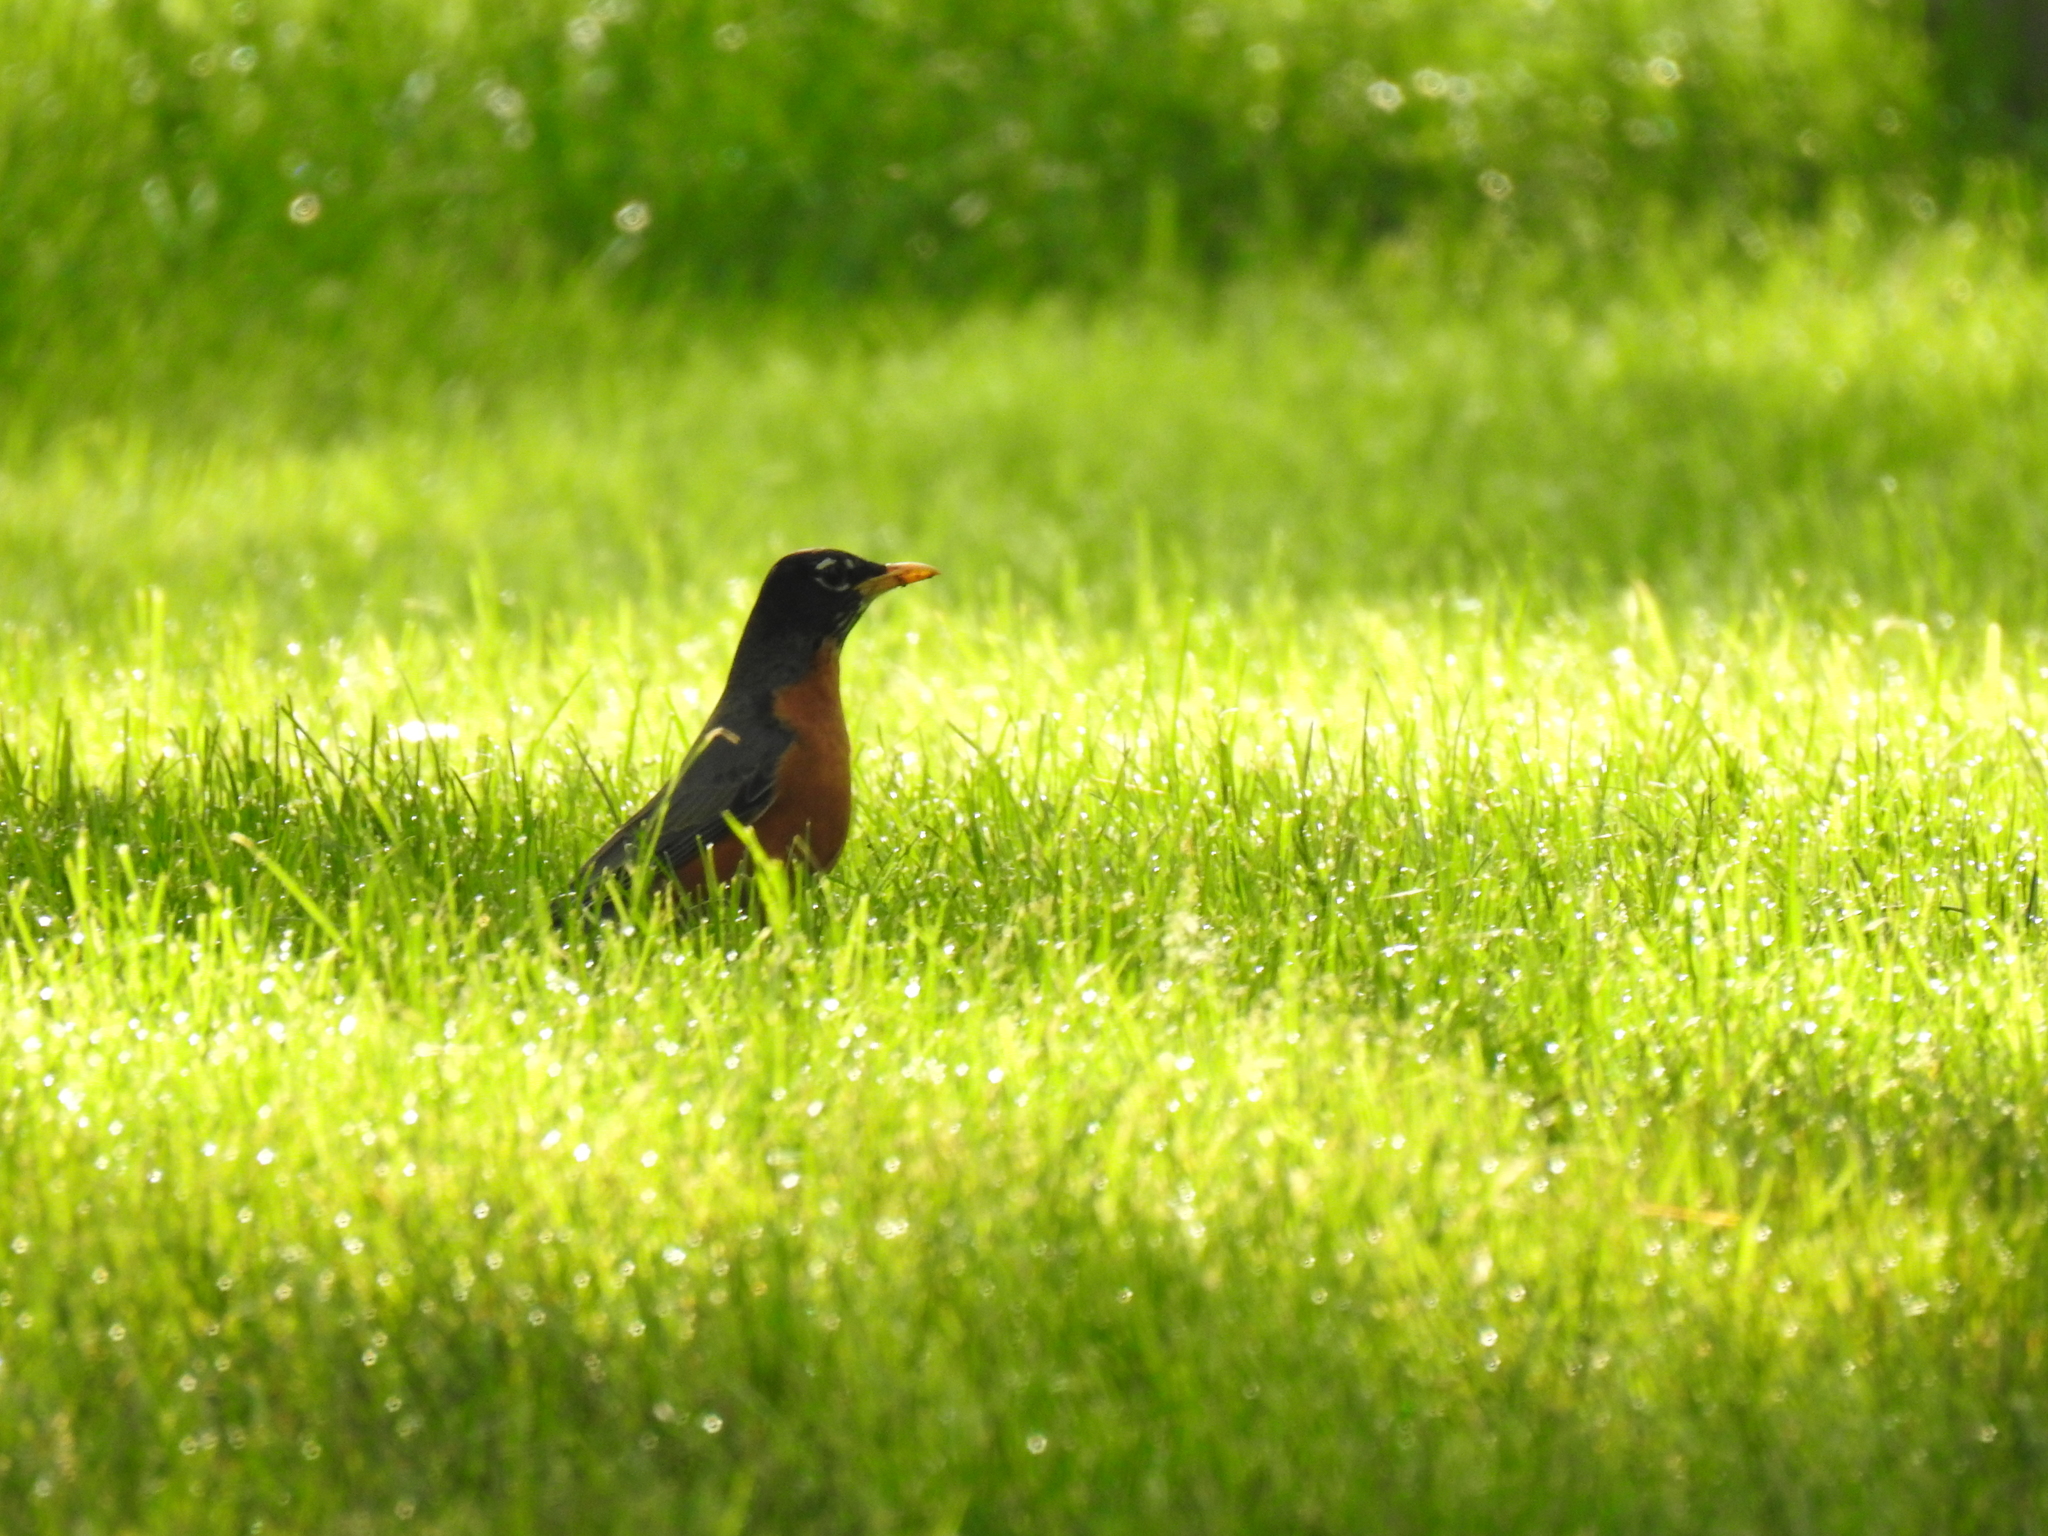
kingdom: Animalia
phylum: Chordata
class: Aves
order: Passeriformes
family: Turdidae
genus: Turdus
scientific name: Turdus migratorius
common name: American robin
